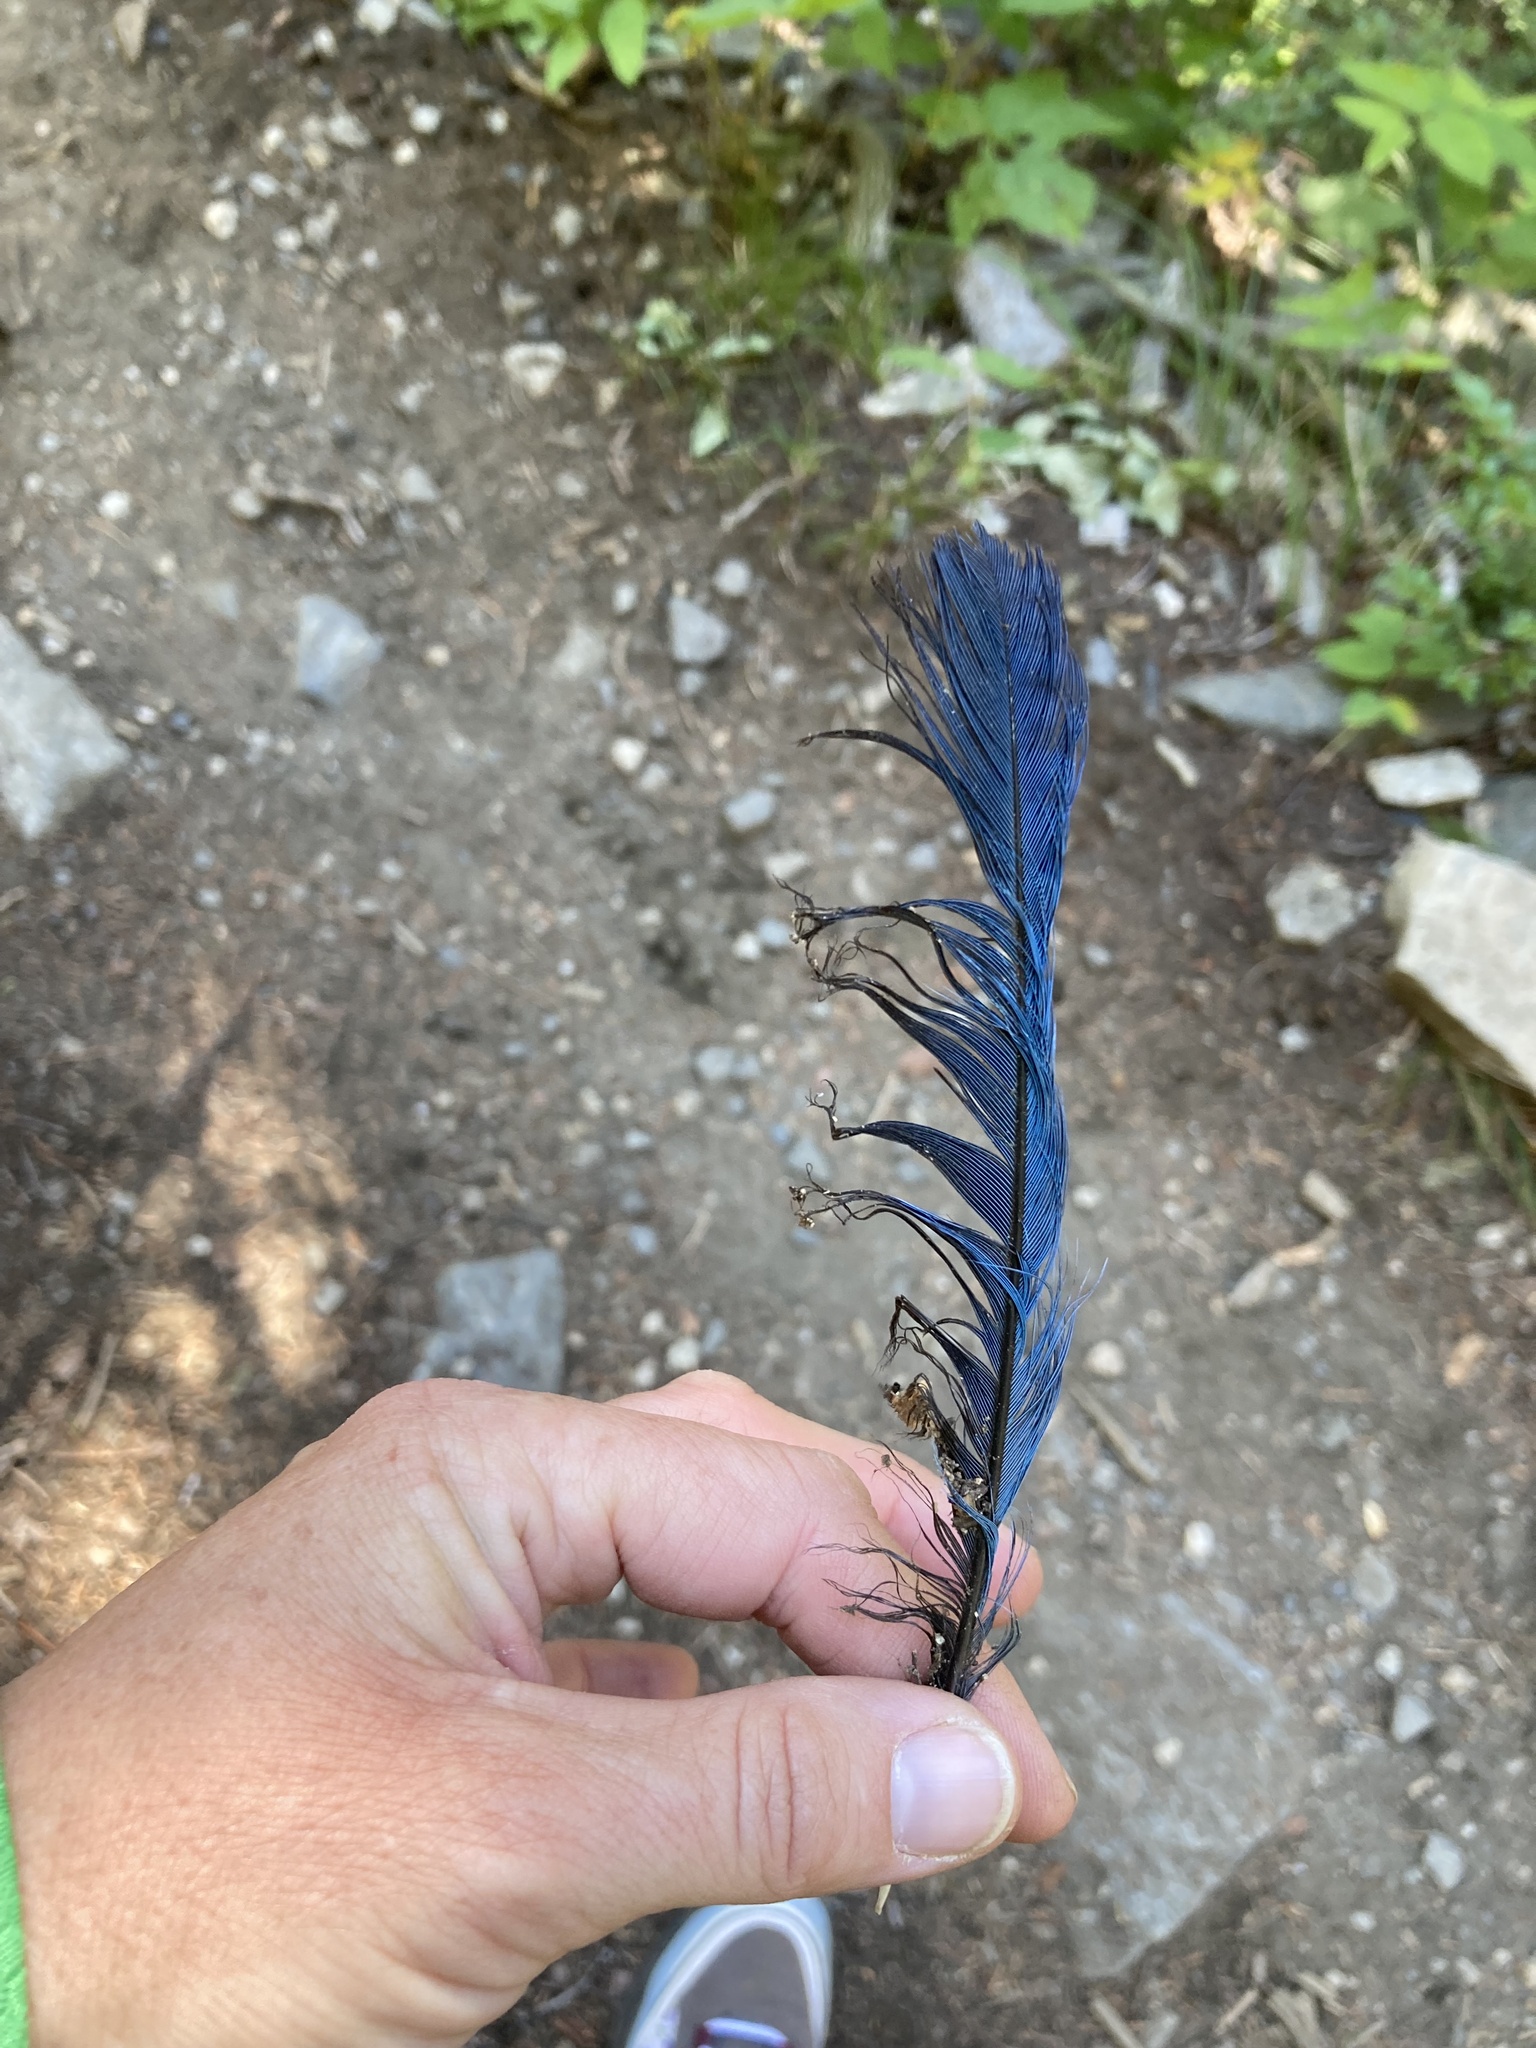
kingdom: Animalia
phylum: Chordata
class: Aves
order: Passeriformes
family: Corvidae
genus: Cyanocitta
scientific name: Cyanocitta stelleri
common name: Steller's jay
